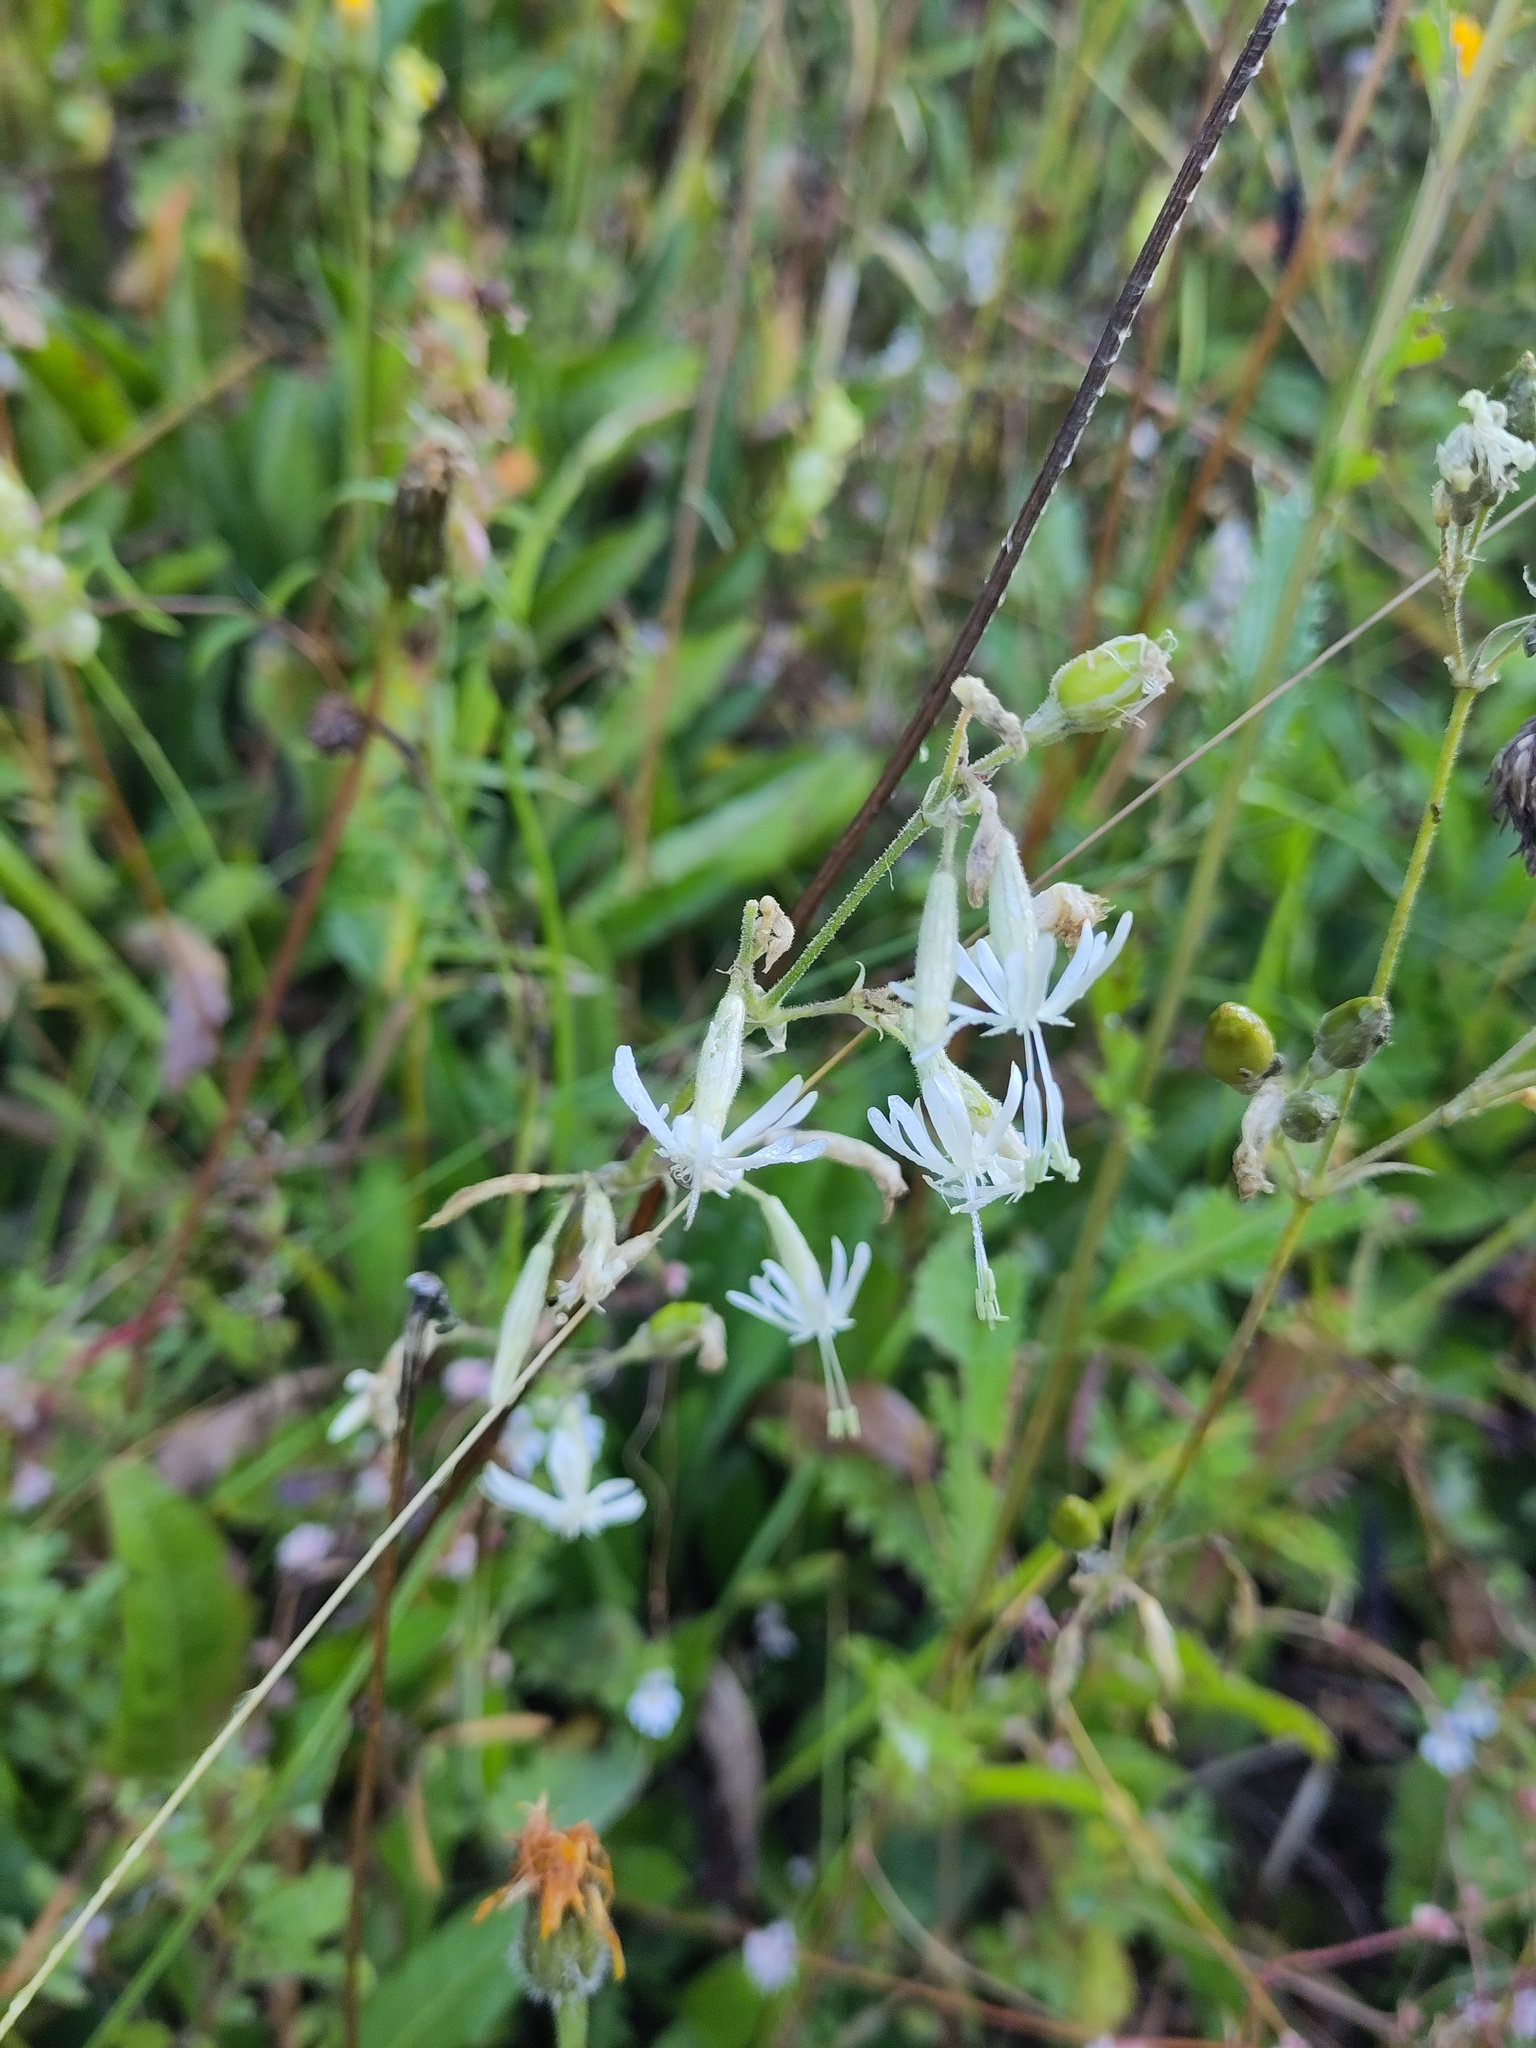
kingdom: Plantae
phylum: Tracheophyta
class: Magnoliopsida
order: Caryophyllales
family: Caryophyllaceae
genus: Silene
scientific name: Silene nutans
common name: Nottingham catchfly
